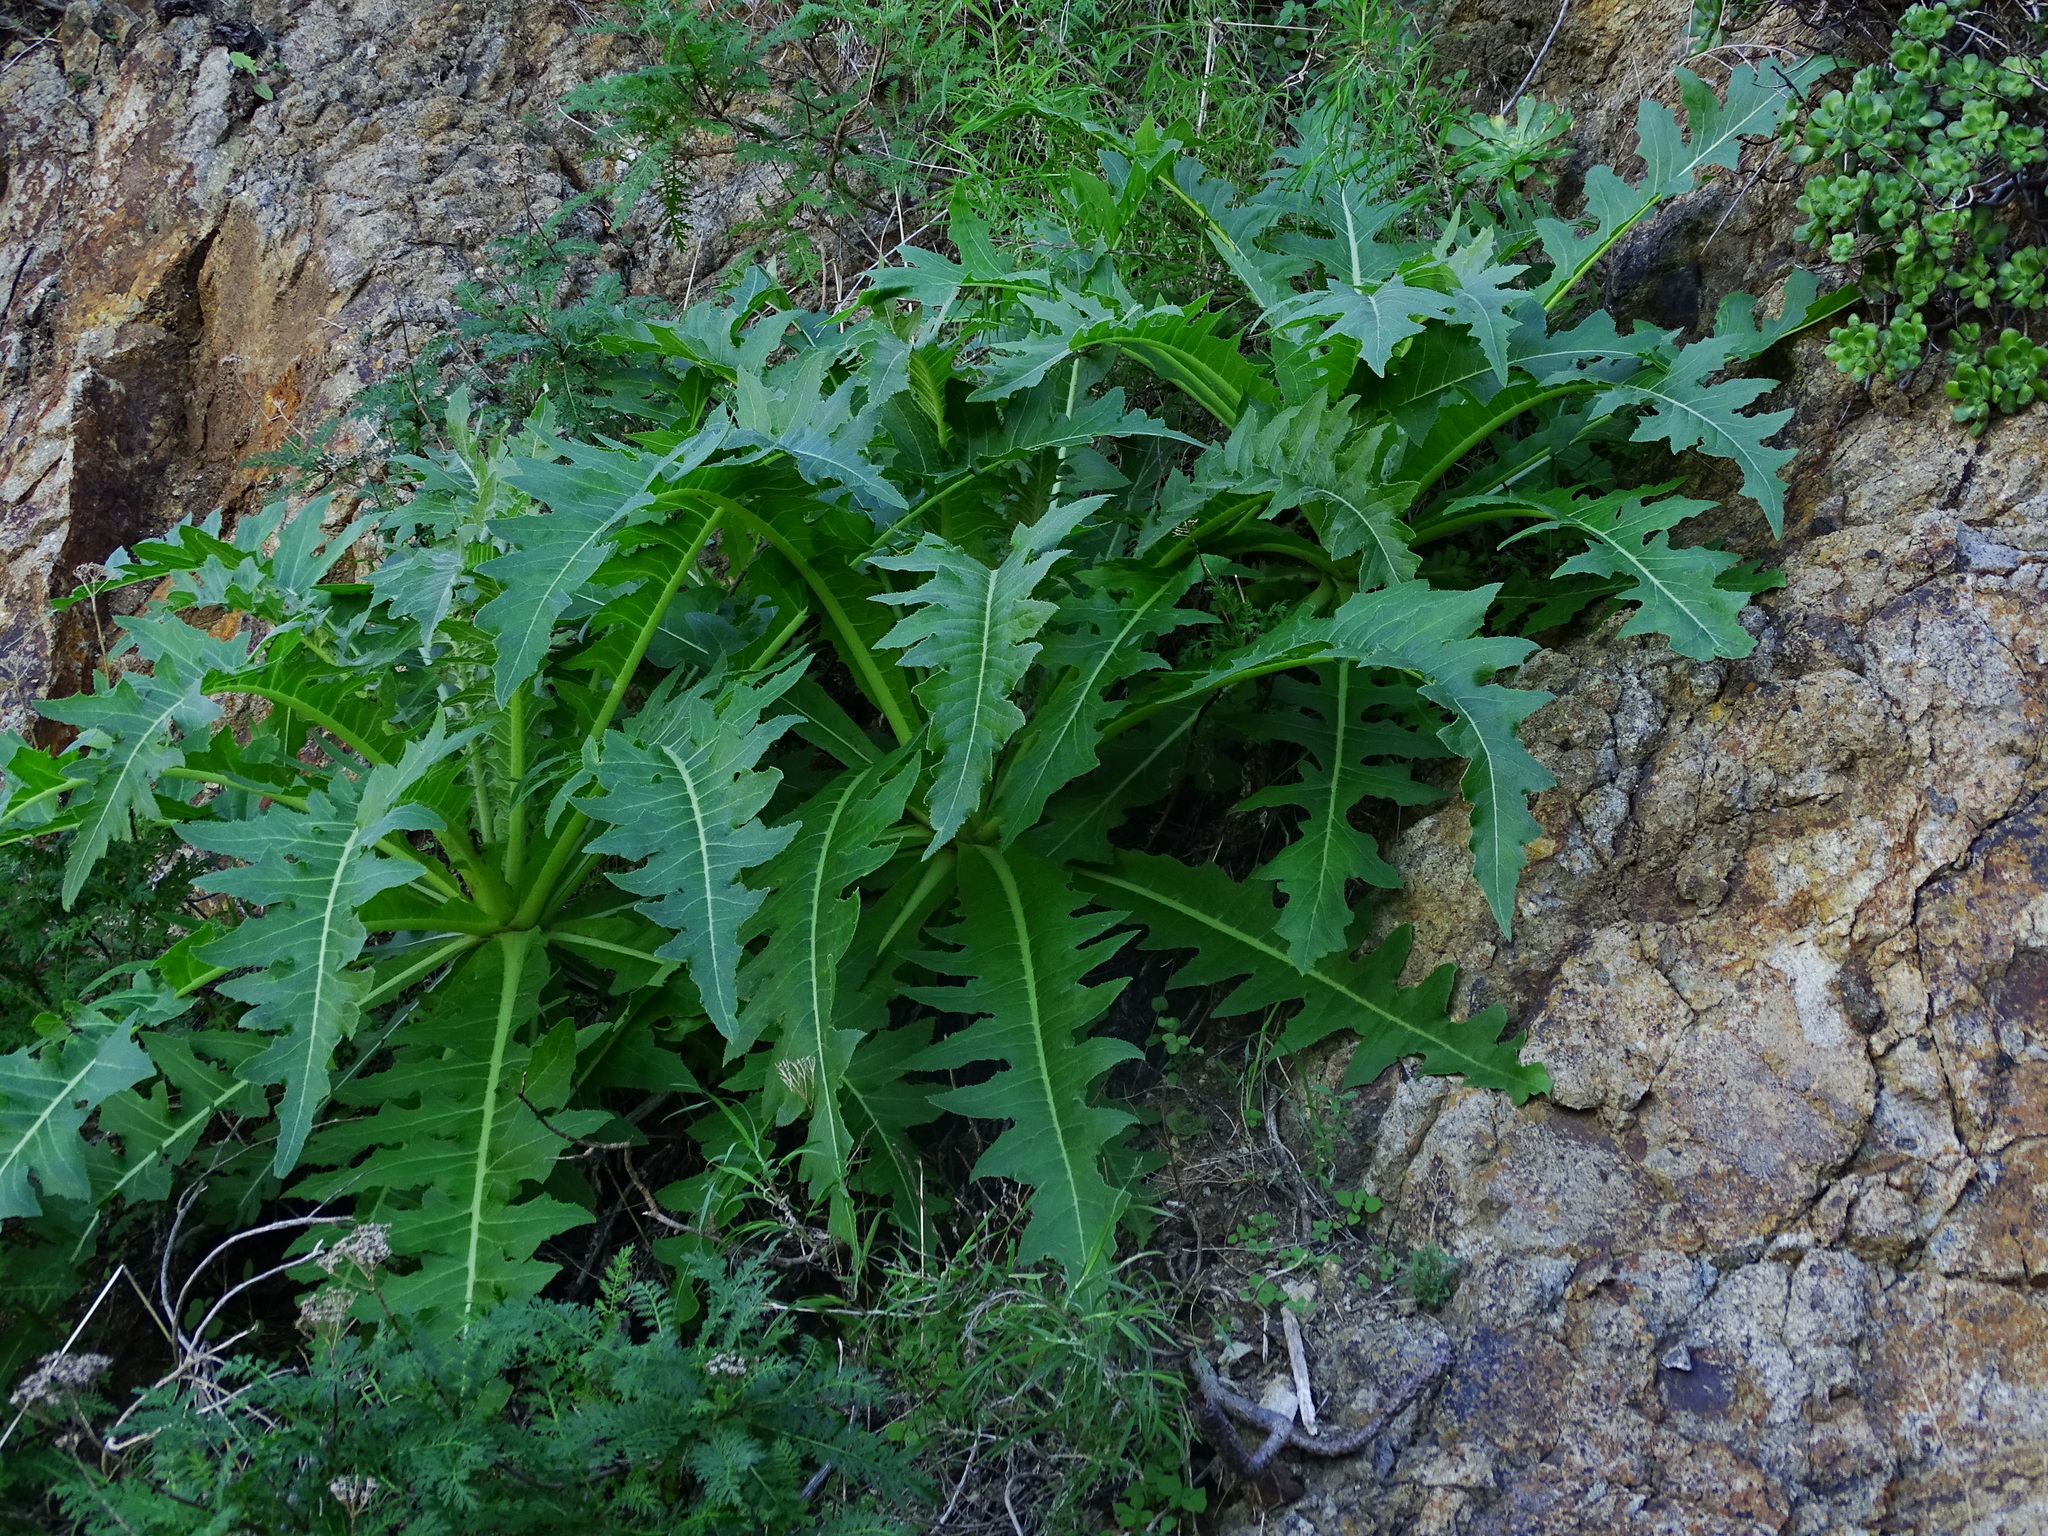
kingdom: Plantae
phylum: Tracheophyta
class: Magnoliopsida
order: Asterales
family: Asteraceae
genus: Sonchus
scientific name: Sonchus acaulis
